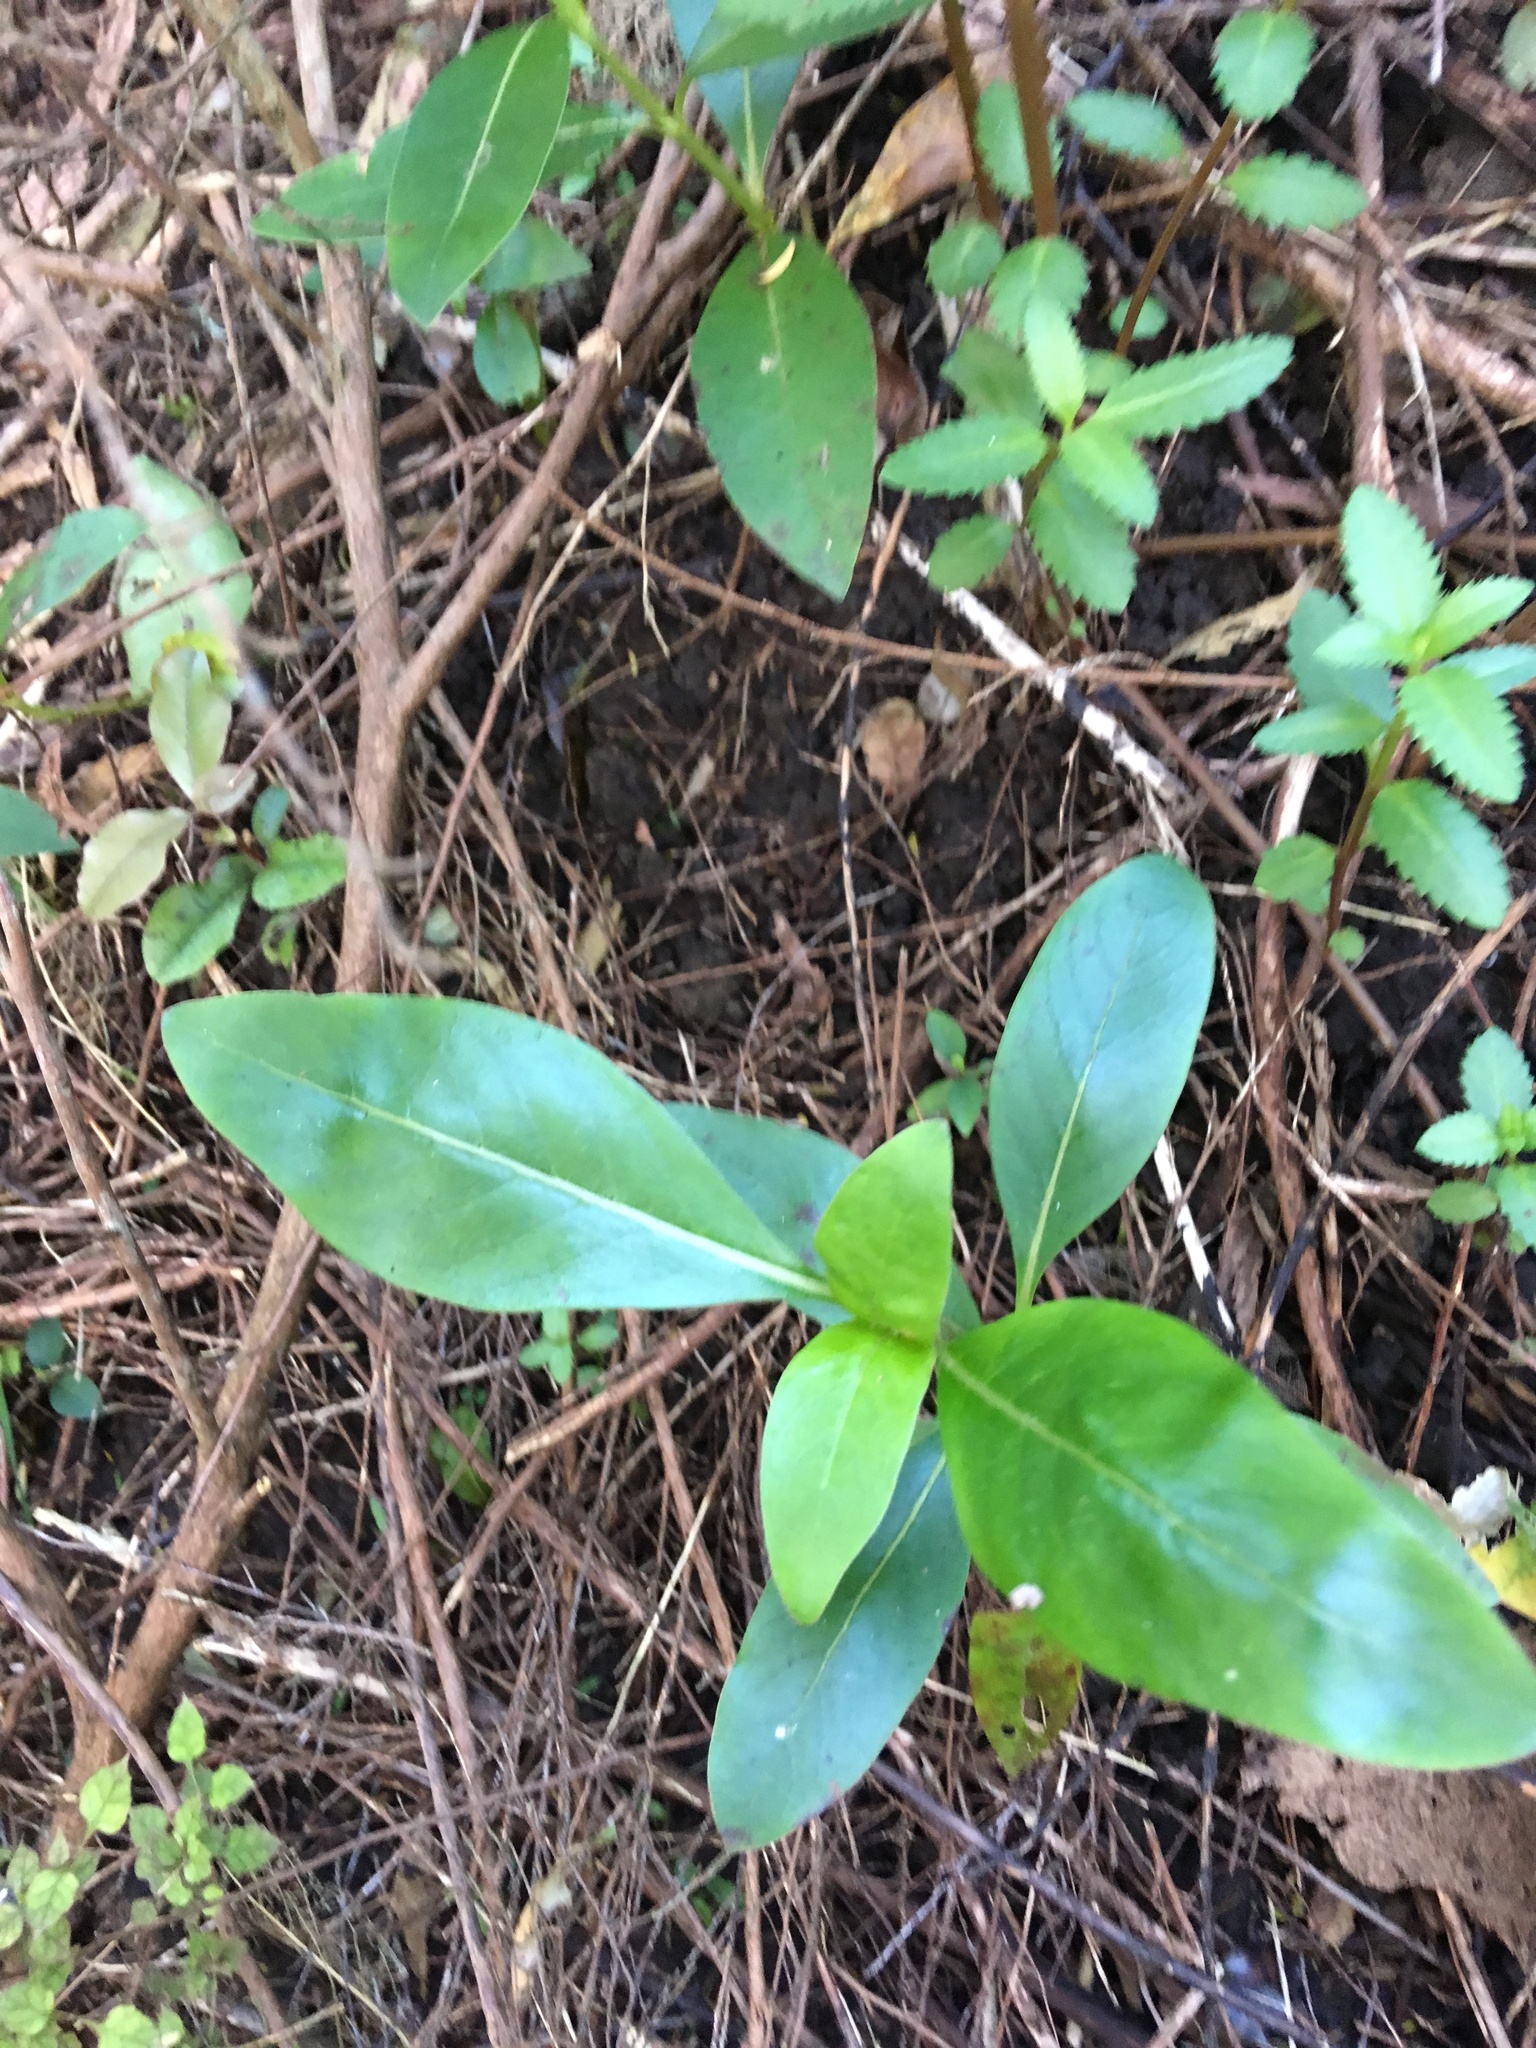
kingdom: Plantae
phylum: Tracheophyta
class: Magnoliopsida
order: Gentianales
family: Rubiaceae
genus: Coprosma
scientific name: Coprosma robusta
